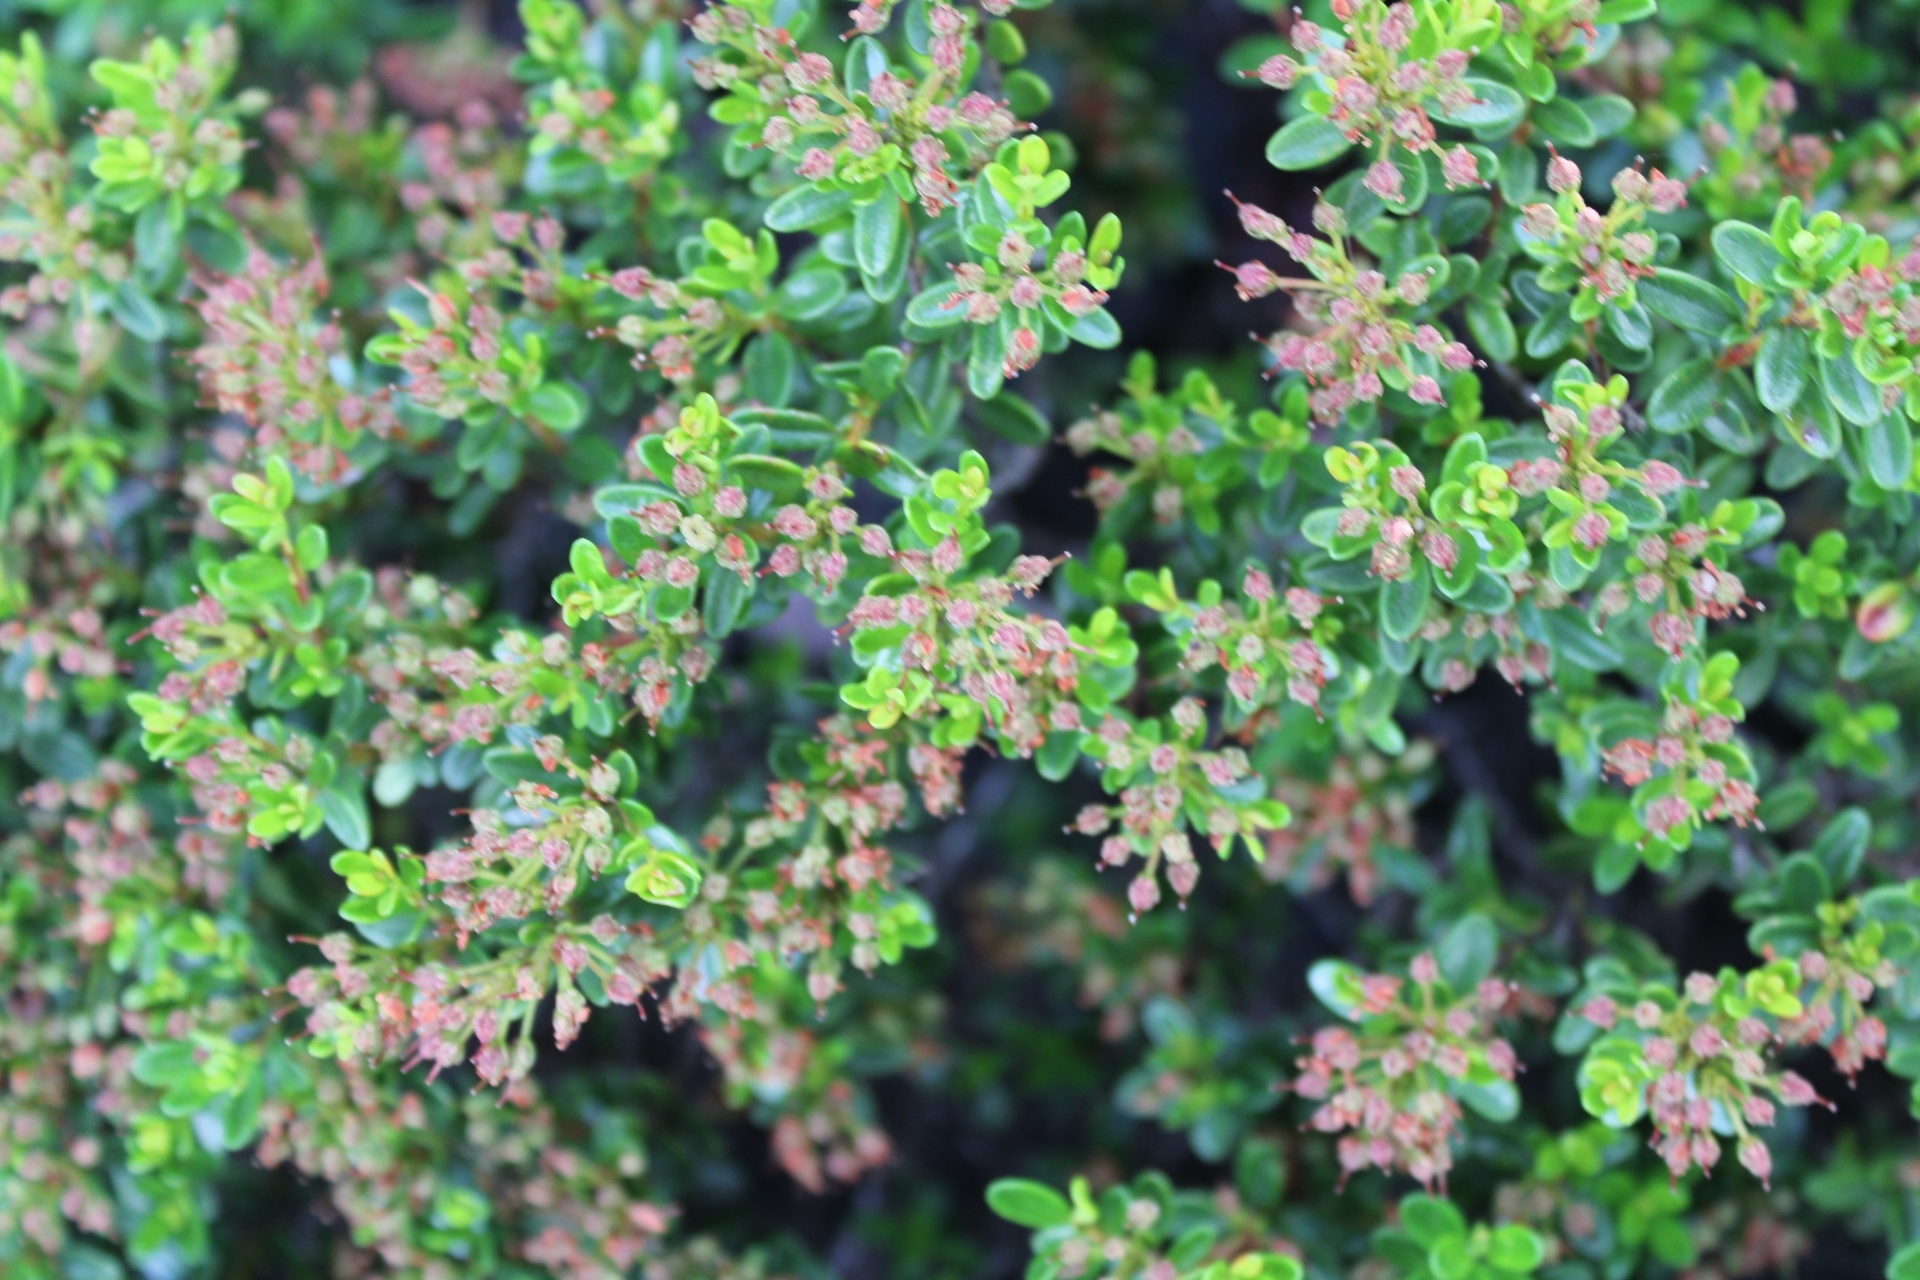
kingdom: Plantae
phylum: Tracheophyta
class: Magnoliopsida
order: Ericales
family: Ericaceae
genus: Kalmia
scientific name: Kalmia buxifolia
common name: Sandmyrtle
